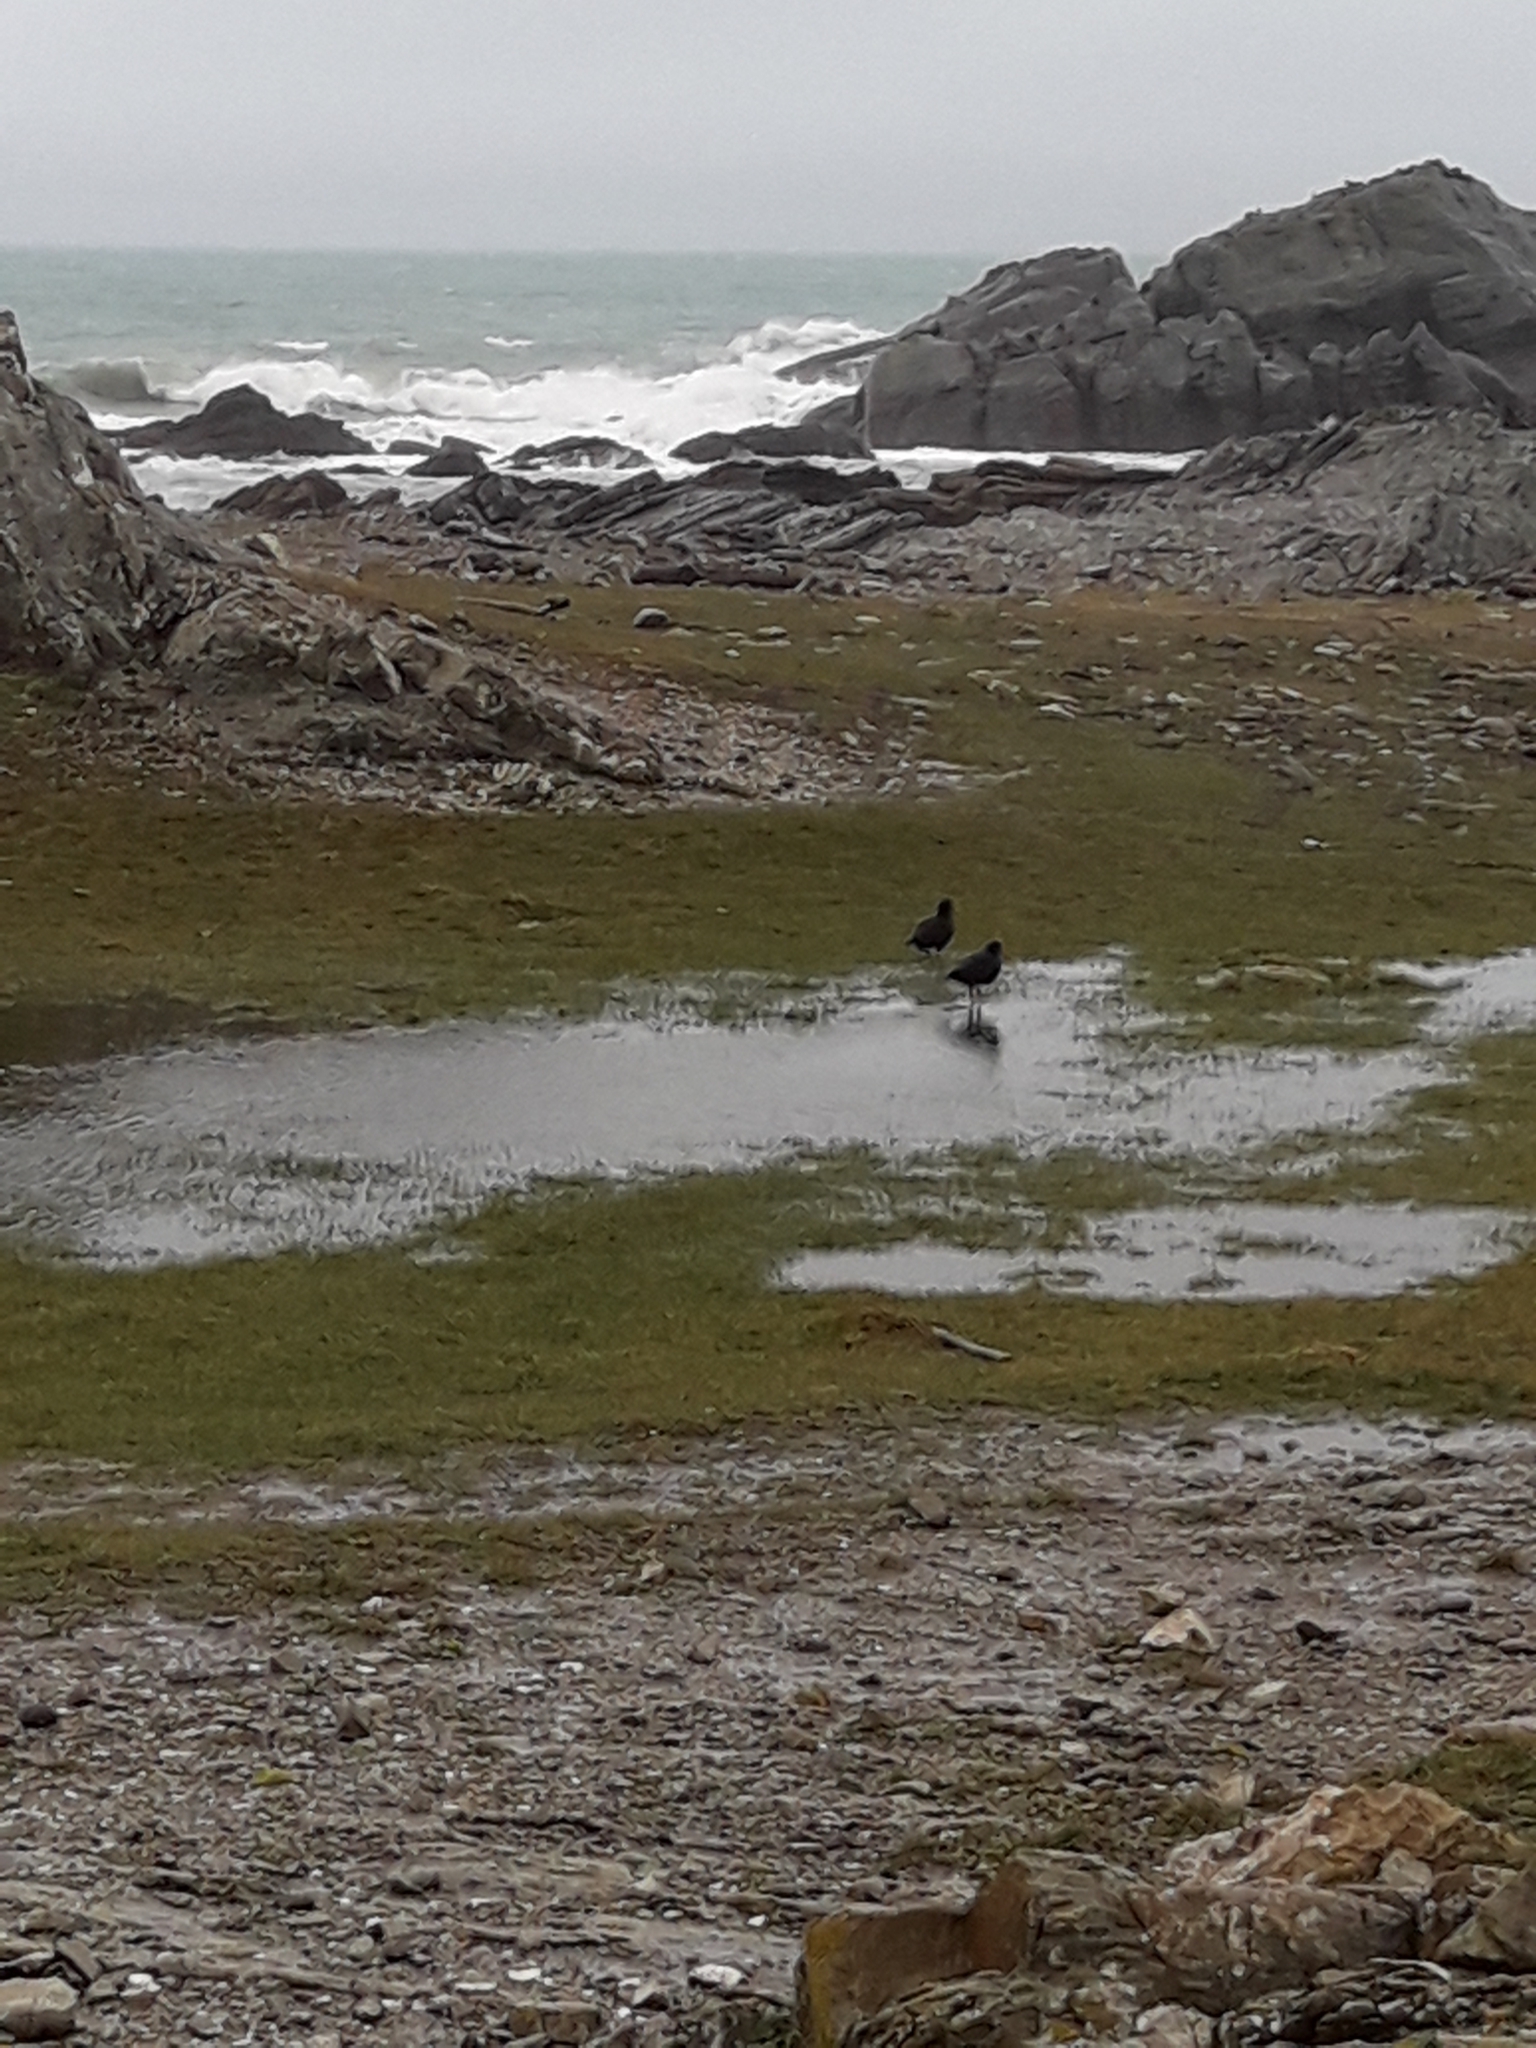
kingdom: Animalia
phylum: Chordata
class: Aves
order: Charadriiformes
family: Haematopodidae
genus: Haematopus
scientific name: Haematopus unicolor
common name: Variable oystercatcher
